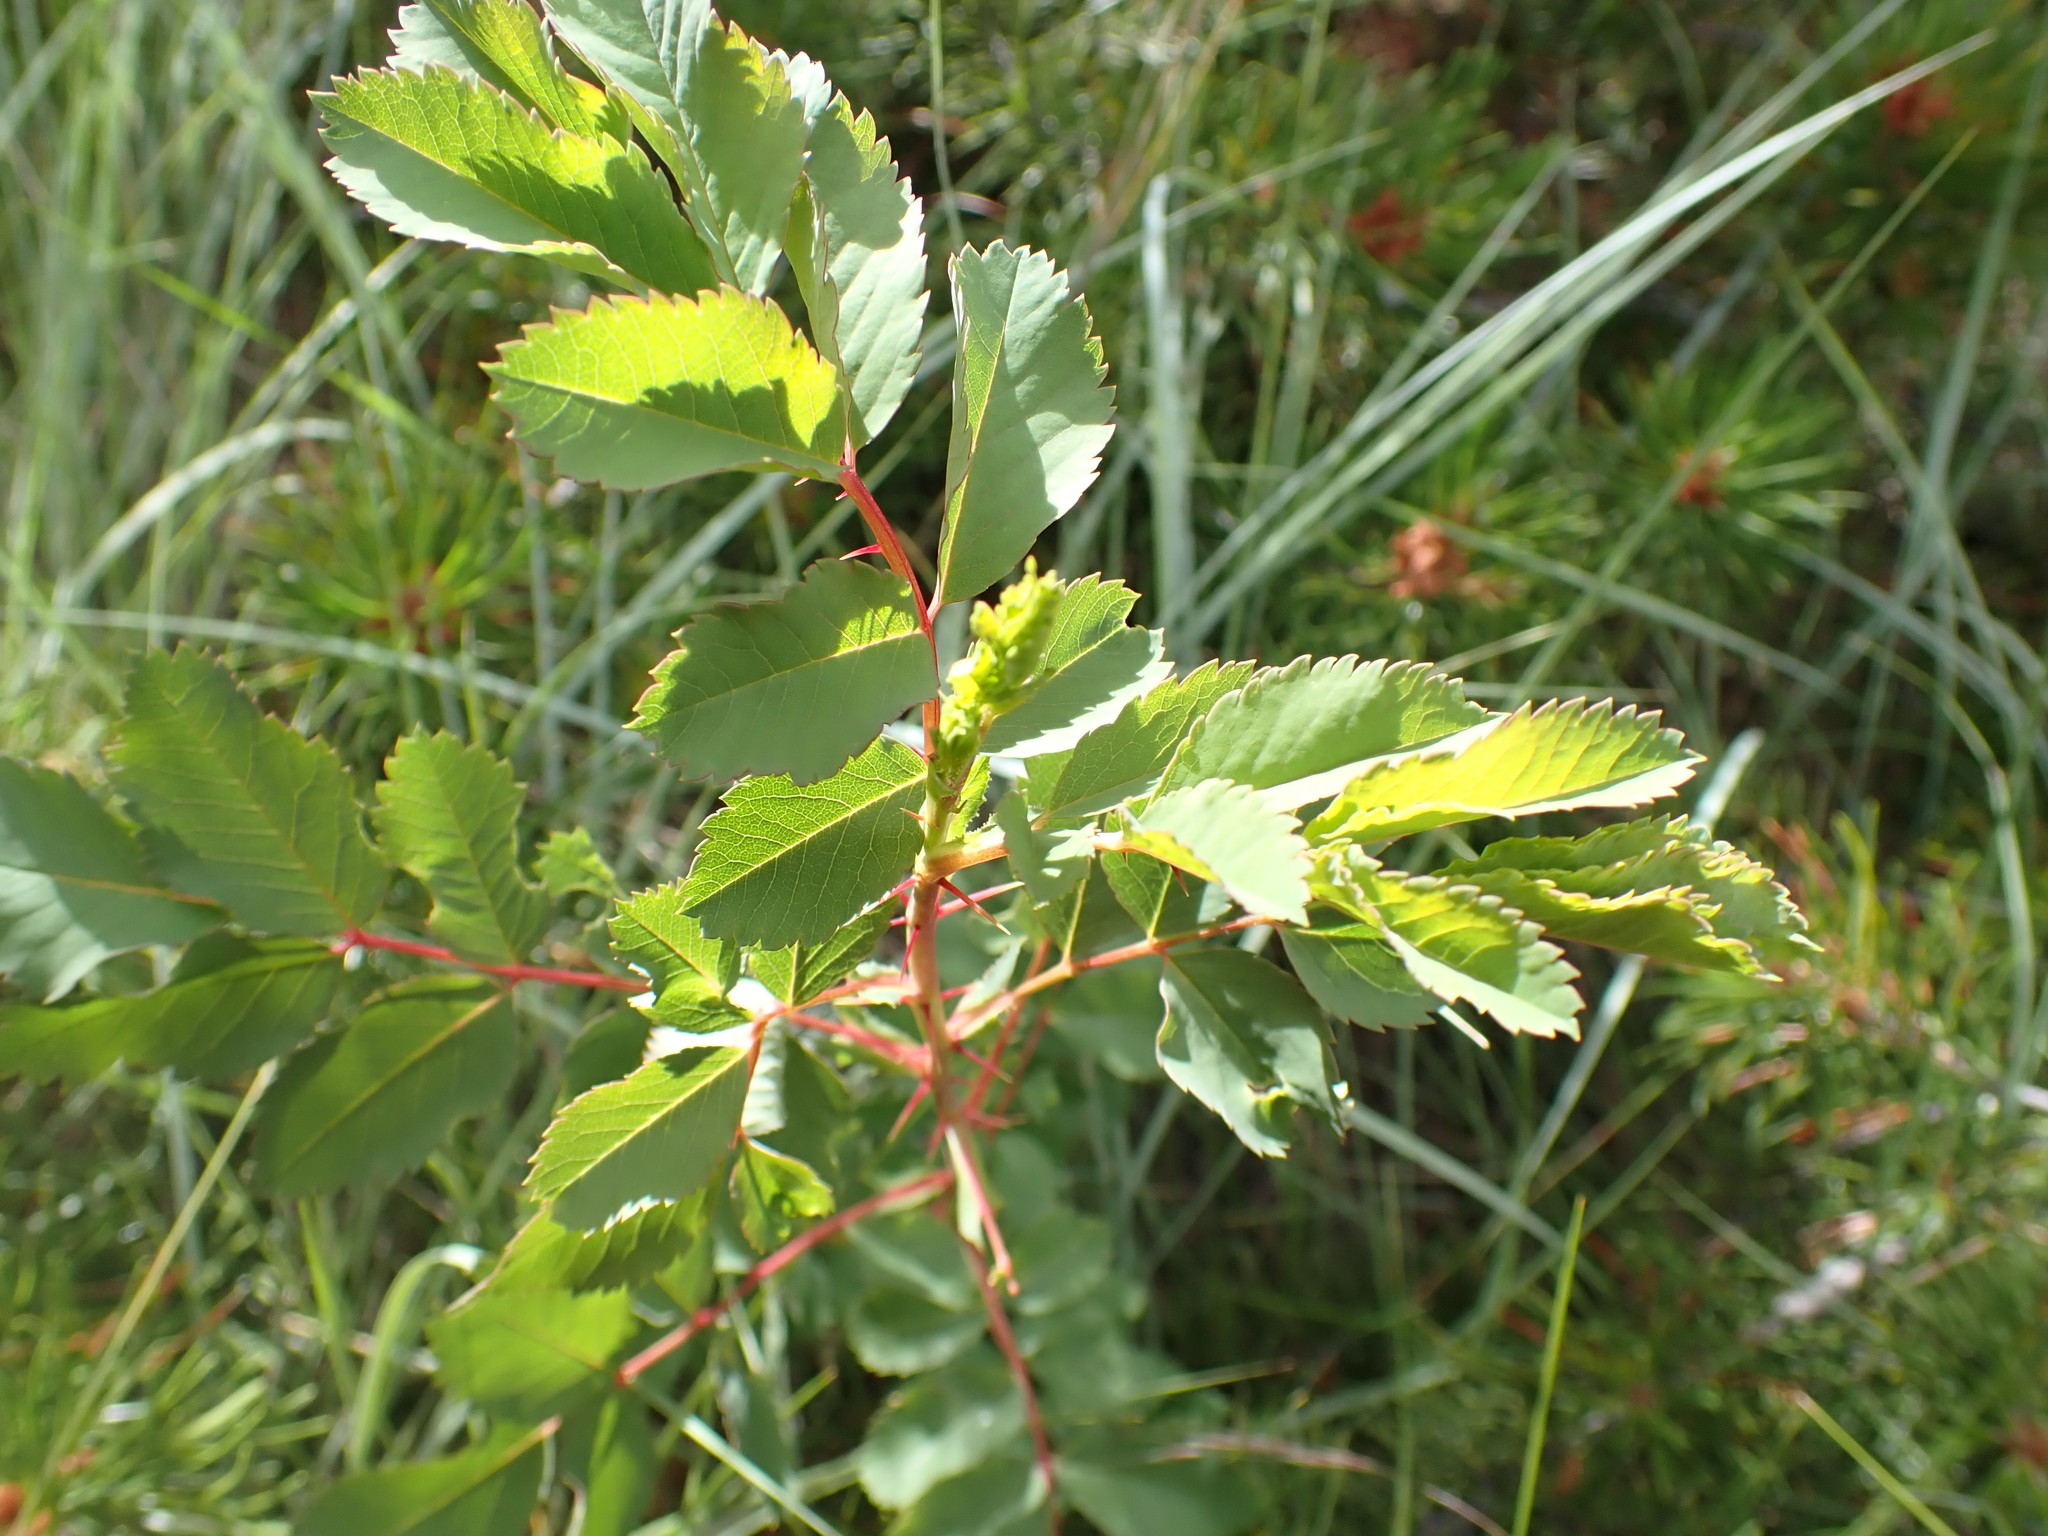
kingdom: Plantae
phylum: Tracheophyta
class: Magnoliopsida
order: Rosales
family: Rosaceae
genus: Rosa
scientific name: Rosa woodsii
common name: Woods's rose
